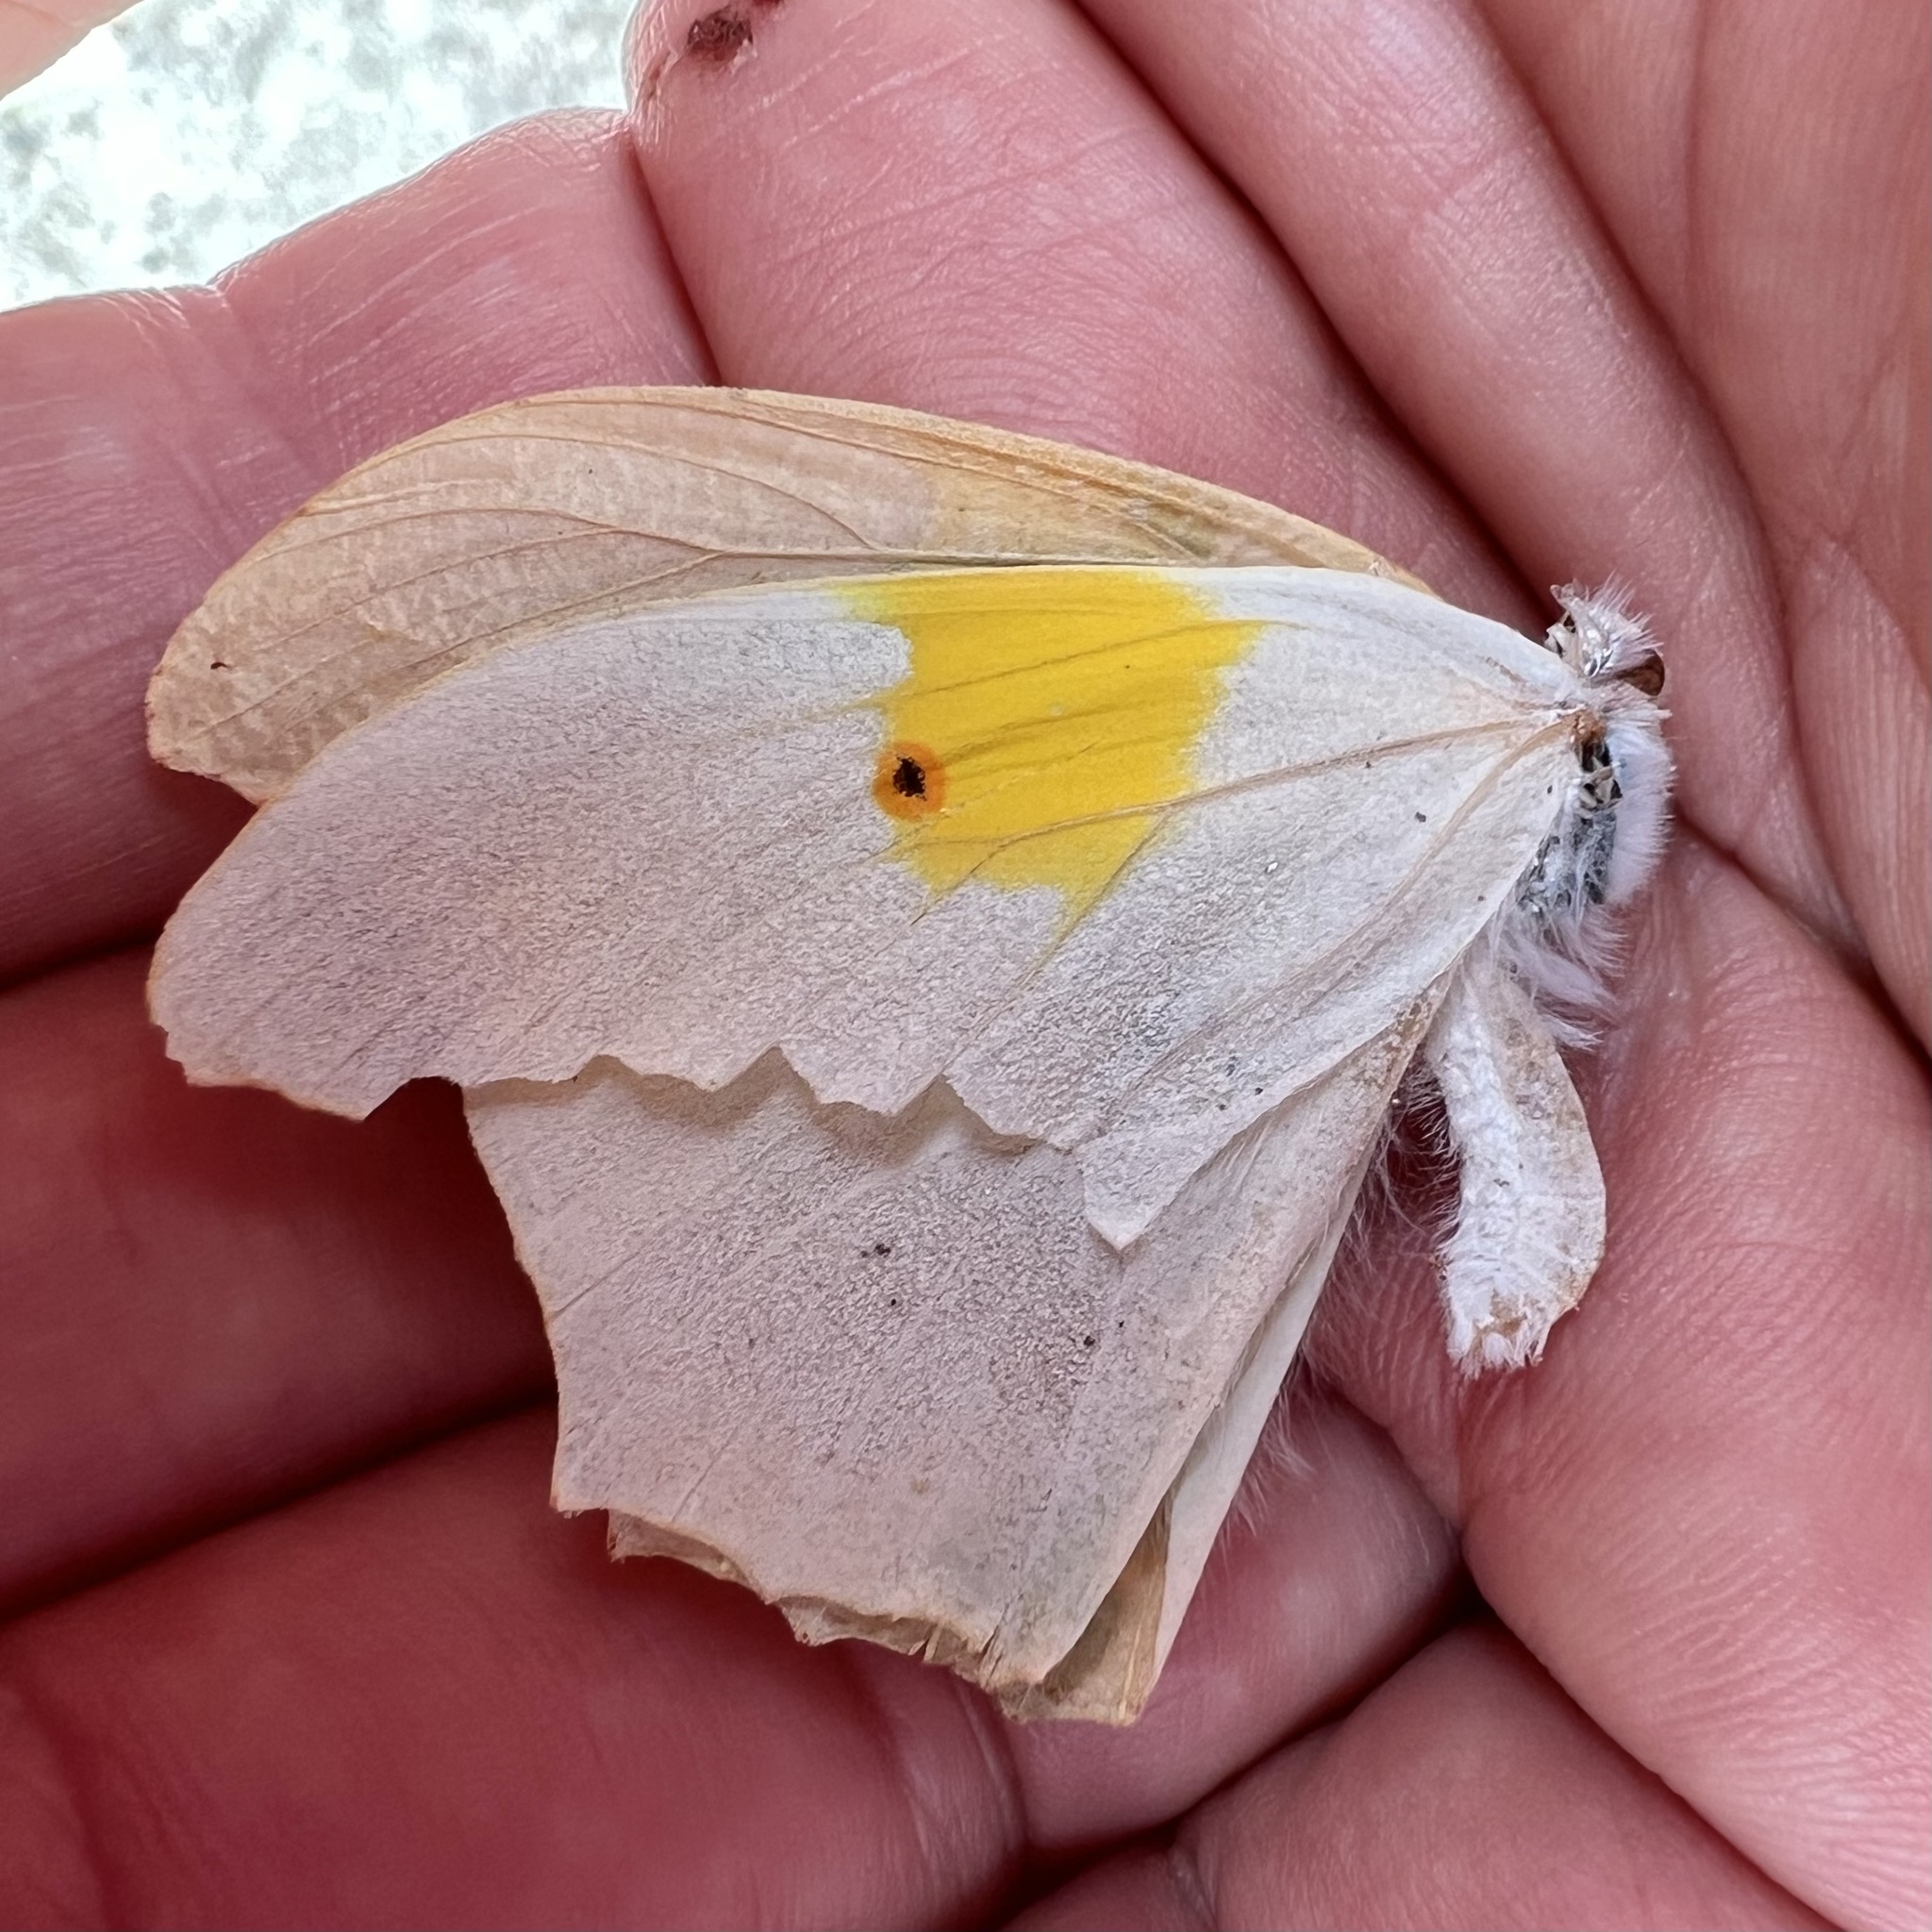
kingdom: Animalia
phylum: Arthropoda
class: Insecta
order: Lepidoptera
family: Pieridae
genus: Anteos
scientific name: Anteos clorinde
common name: White angled sulphur
